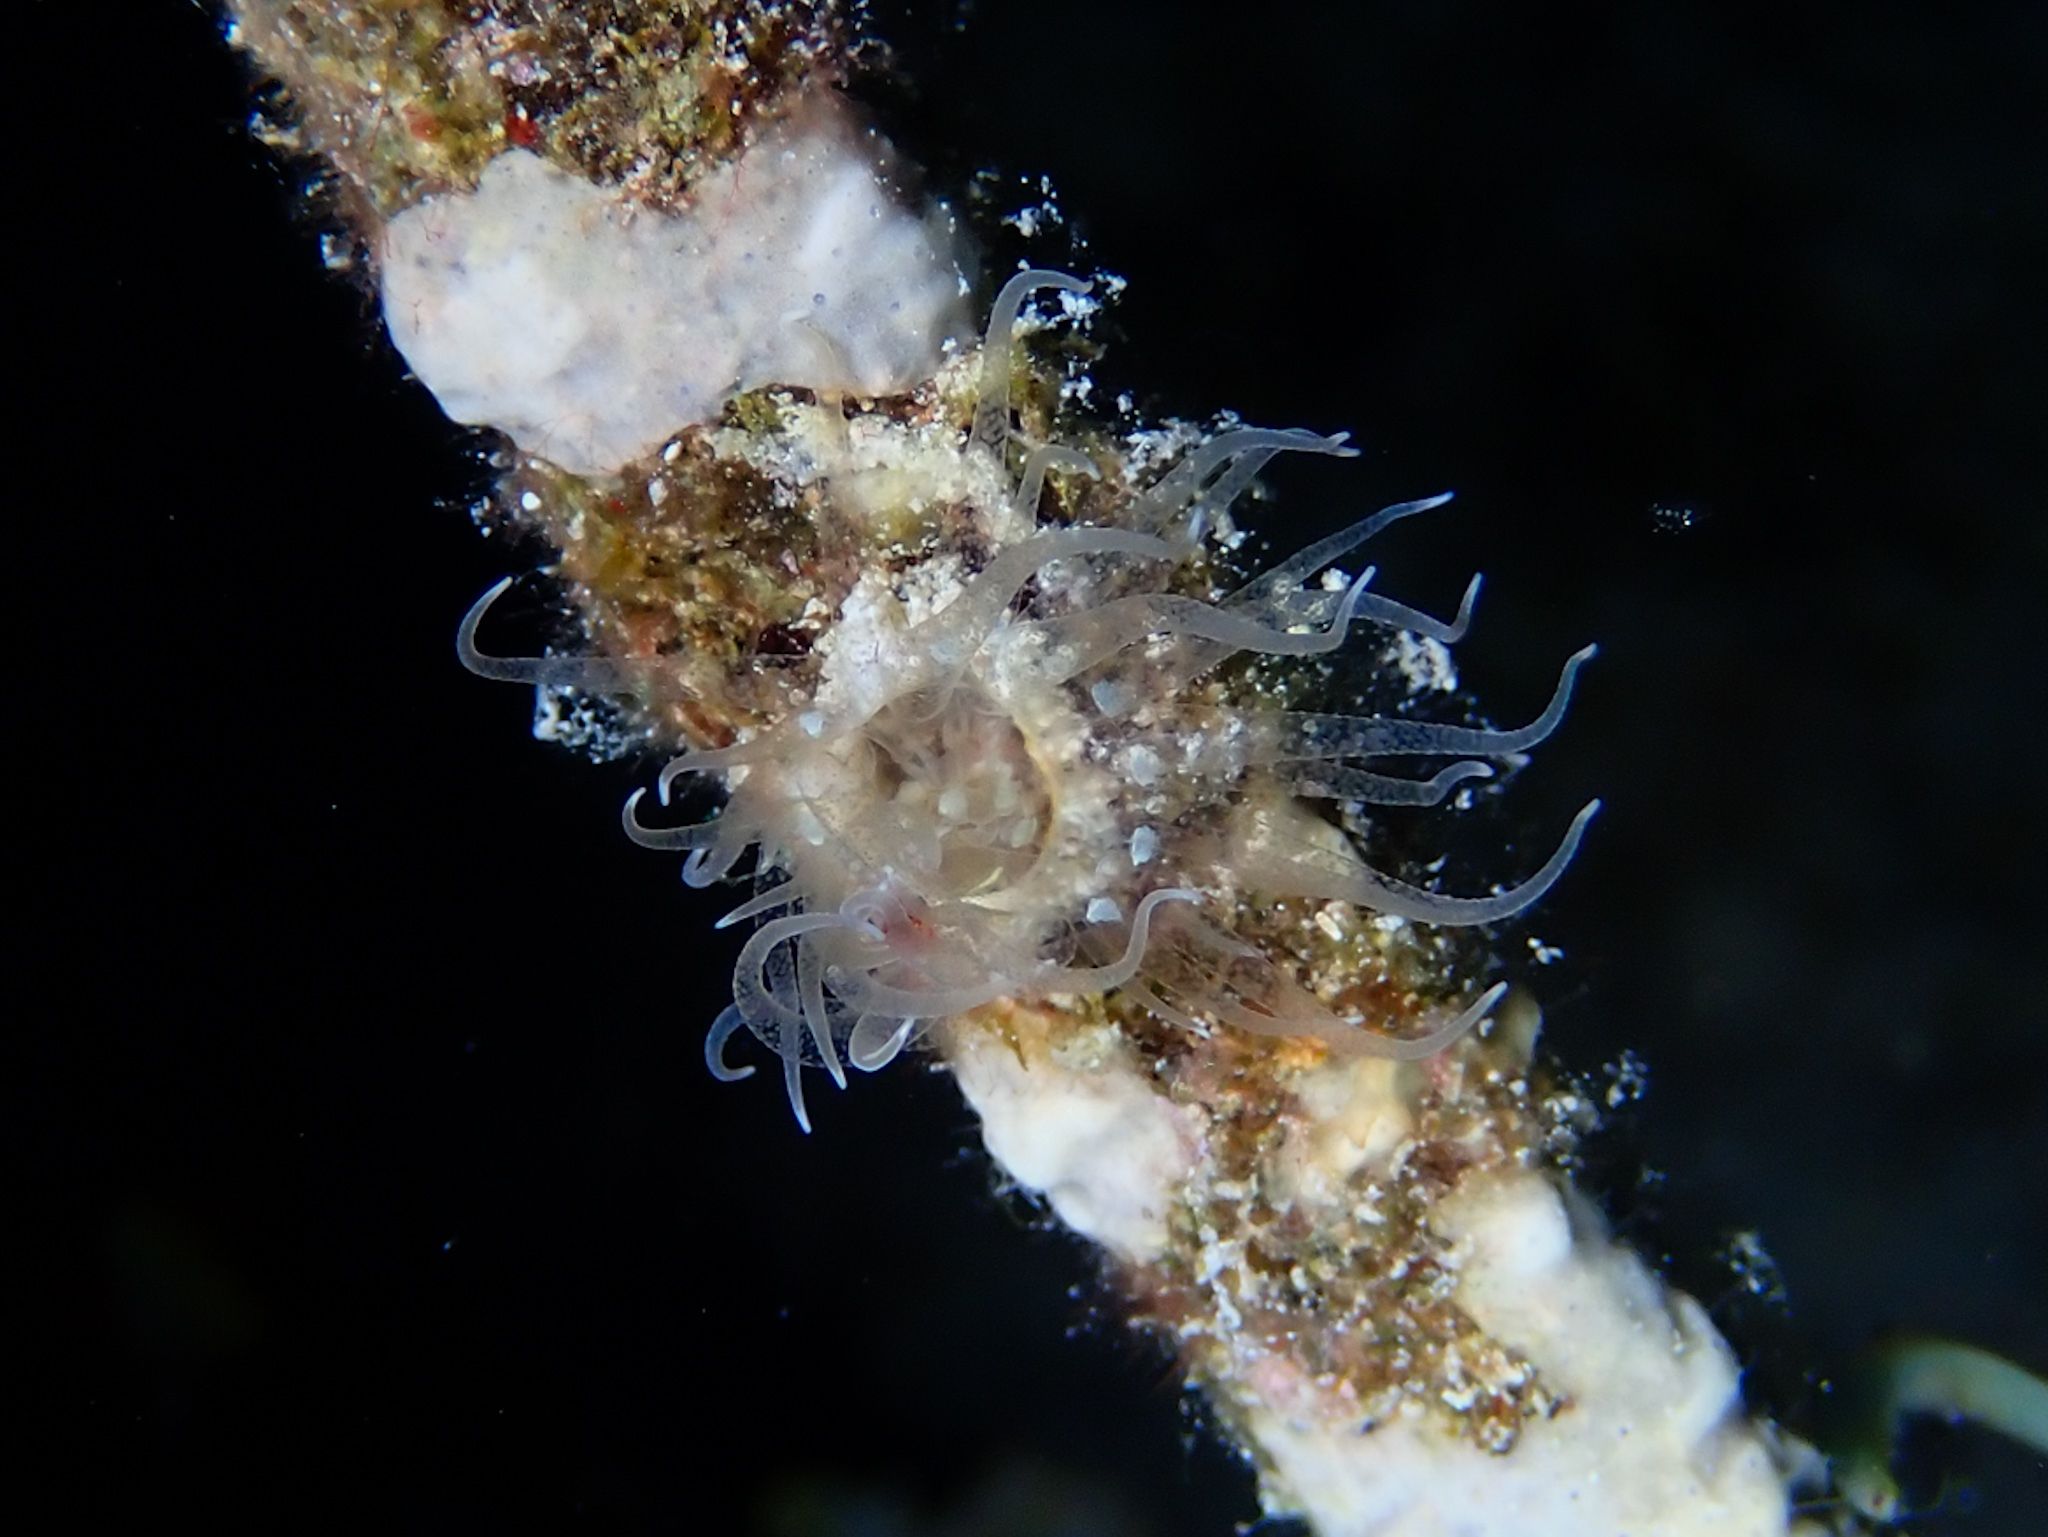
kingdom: Animalia
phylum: Cnidaria
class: Anthozoa
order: Actiniaria
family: Boloceroididae
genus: Bunodeopsis
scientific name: Bunodeopsis globulifera
